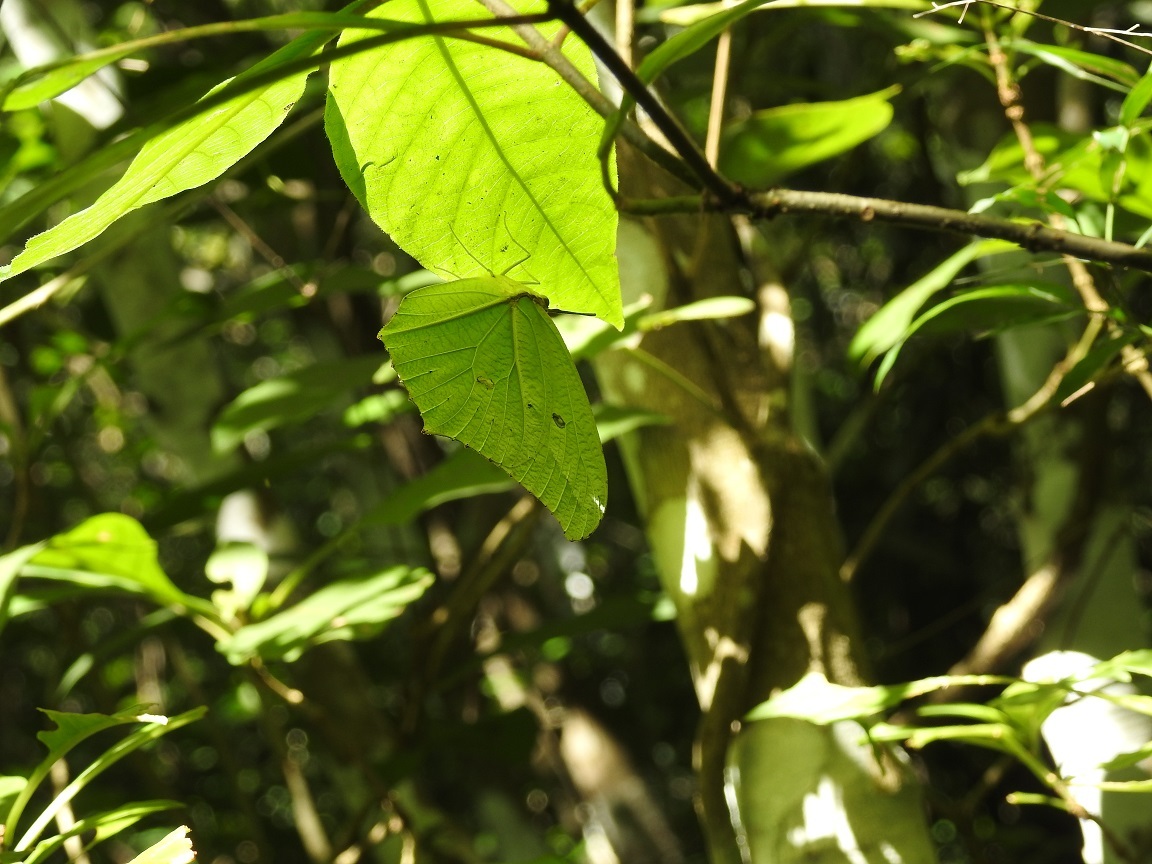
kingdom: Animalia
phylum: Arthropoda
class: Insecta
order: Lepidoptera
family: Pieridae
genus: Anteos
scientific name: Anteos maerula
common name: Angled sulphur
